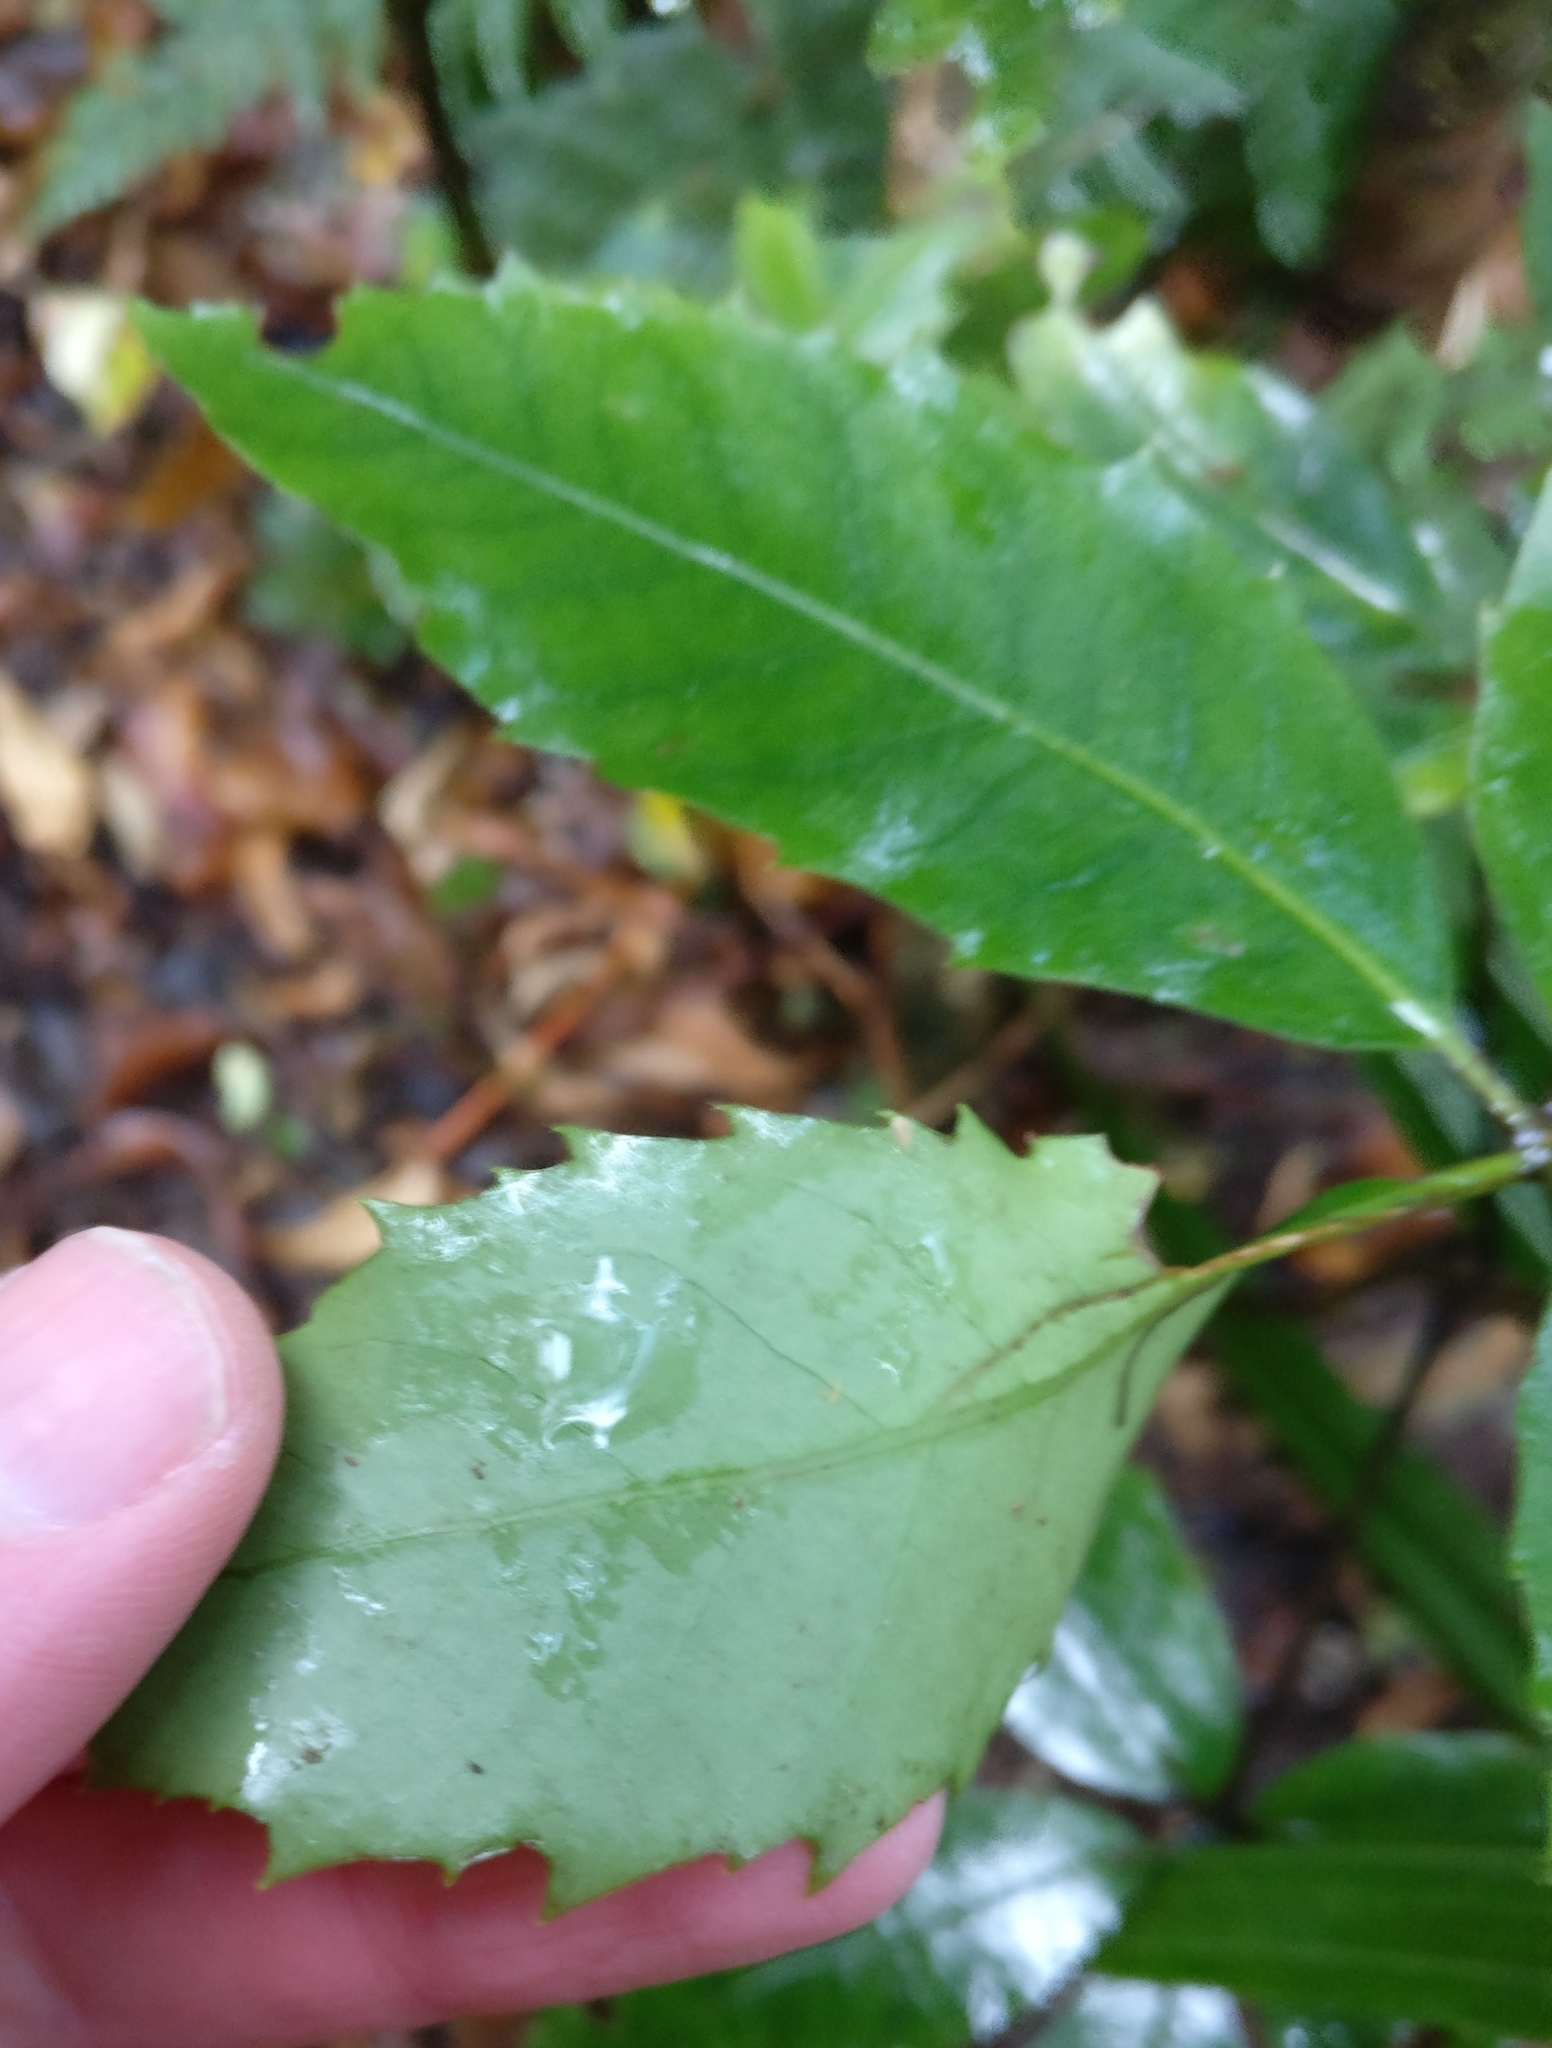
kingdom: Plantae
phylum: Tracheophyta
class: Magnoliopsida
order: Apiales
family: Araliaceae
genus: Neopanax
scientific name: Neopanax arboreus
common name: Five-fingers
